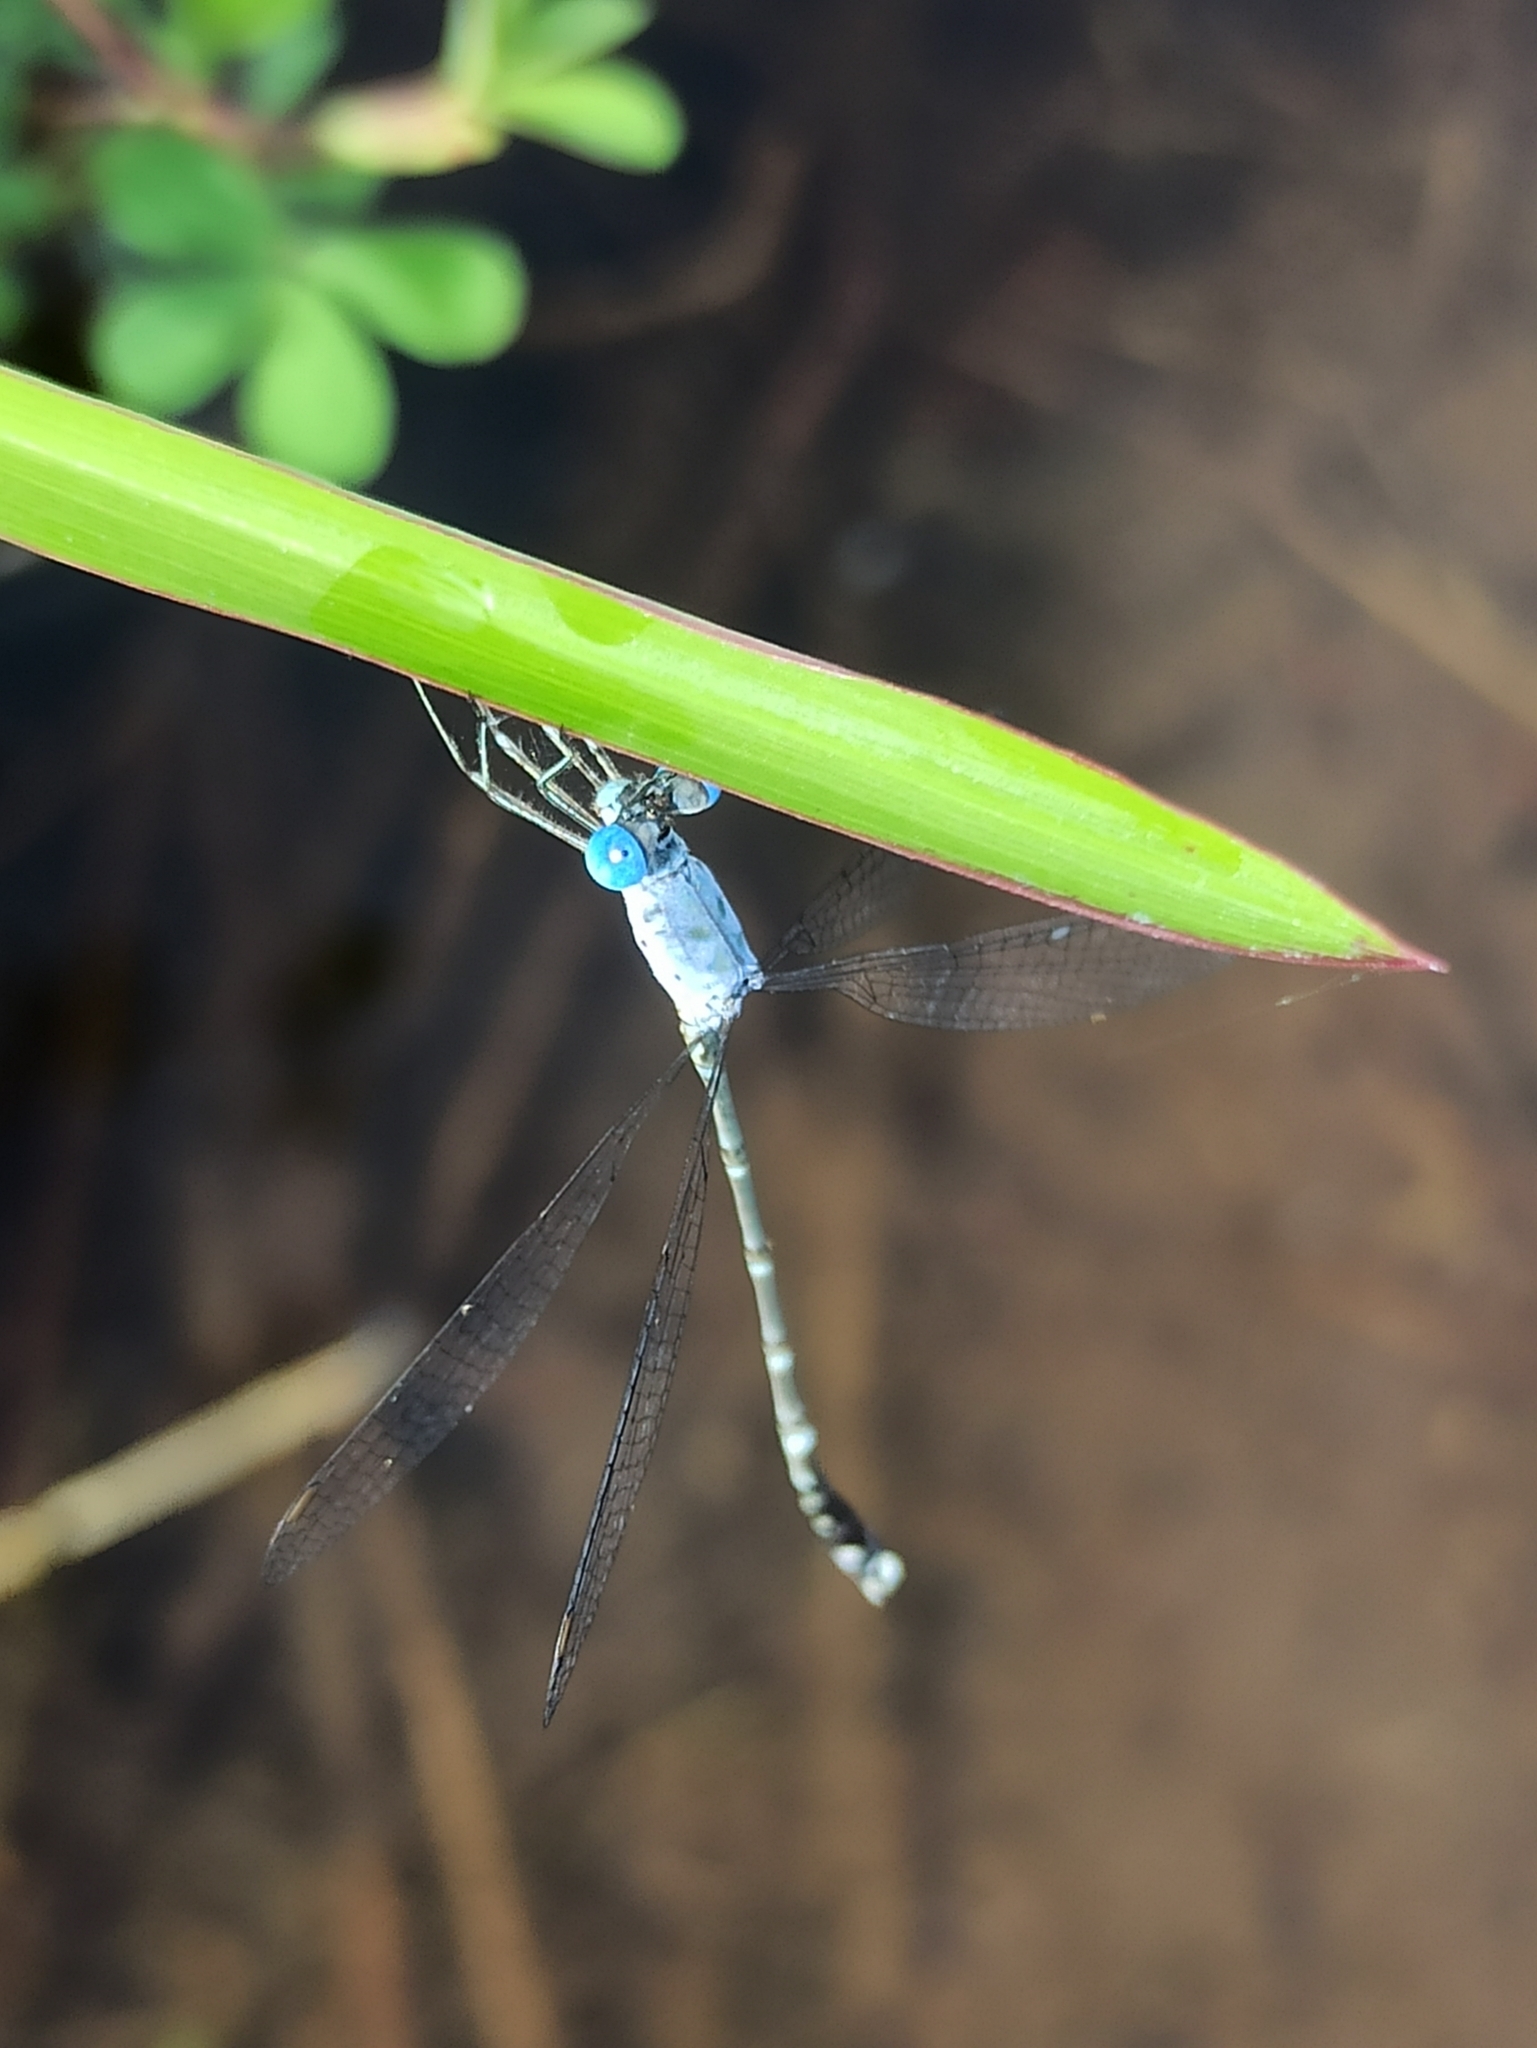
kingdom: Animalia
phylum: Arthropoda
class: Insecta
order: Odonata
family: Lestidae
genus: Lestes
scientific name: Lestes praemorsus
